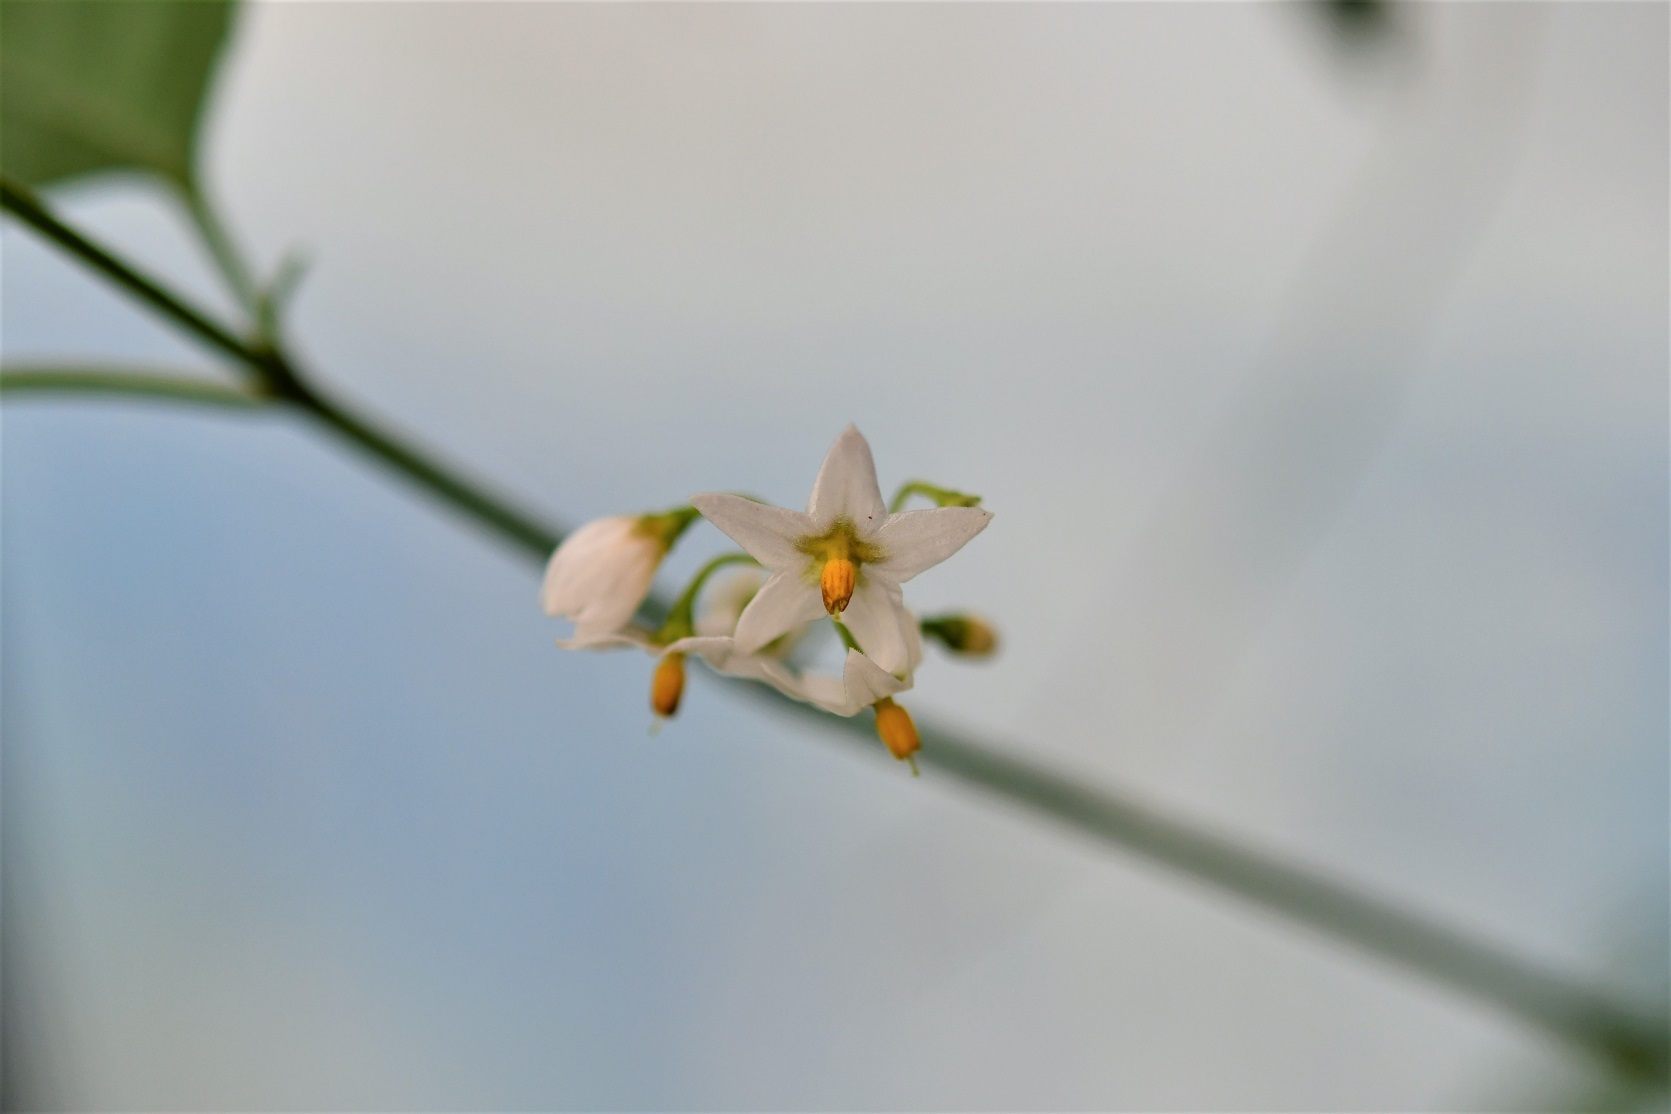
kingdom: Plantae
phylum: Tracheophyta
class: Magnoliopsida
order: Solanales
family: Solanaceae
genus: Solanum
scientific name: Solanum americanum
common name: American black nightshade
